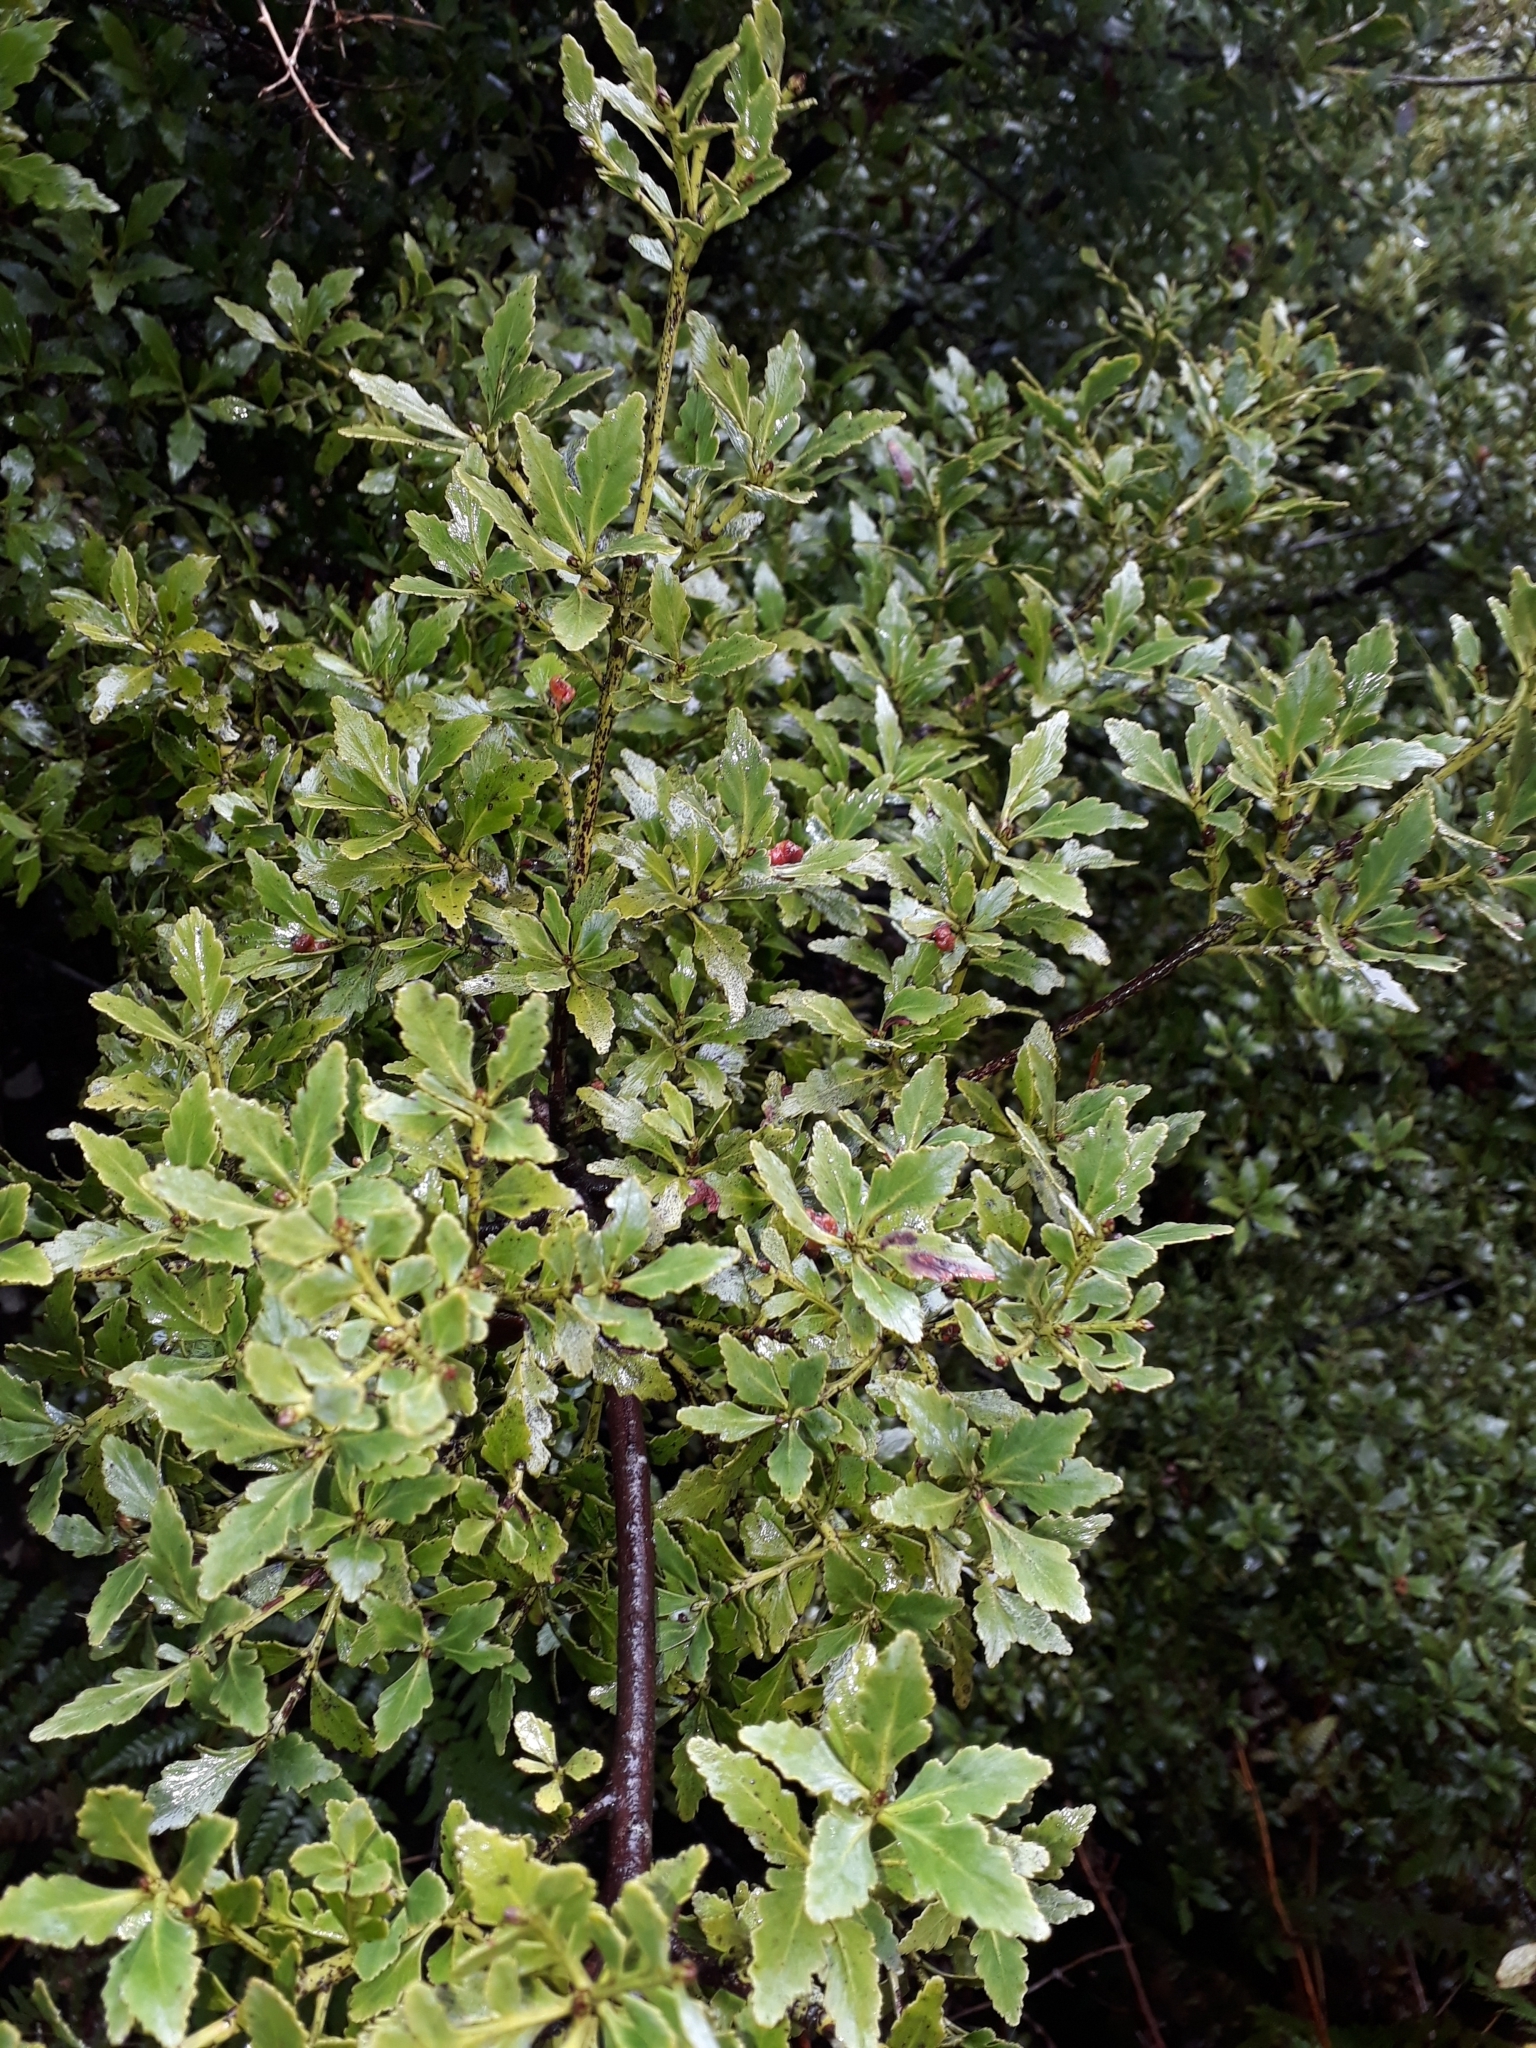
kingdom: Plantae
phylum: Tracheophyta
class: Pinopsida
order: Pinales
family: Phyllocladaceae
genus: Phyllocladus
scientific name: Phyllocladus trichomanoides
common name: Celery pine
